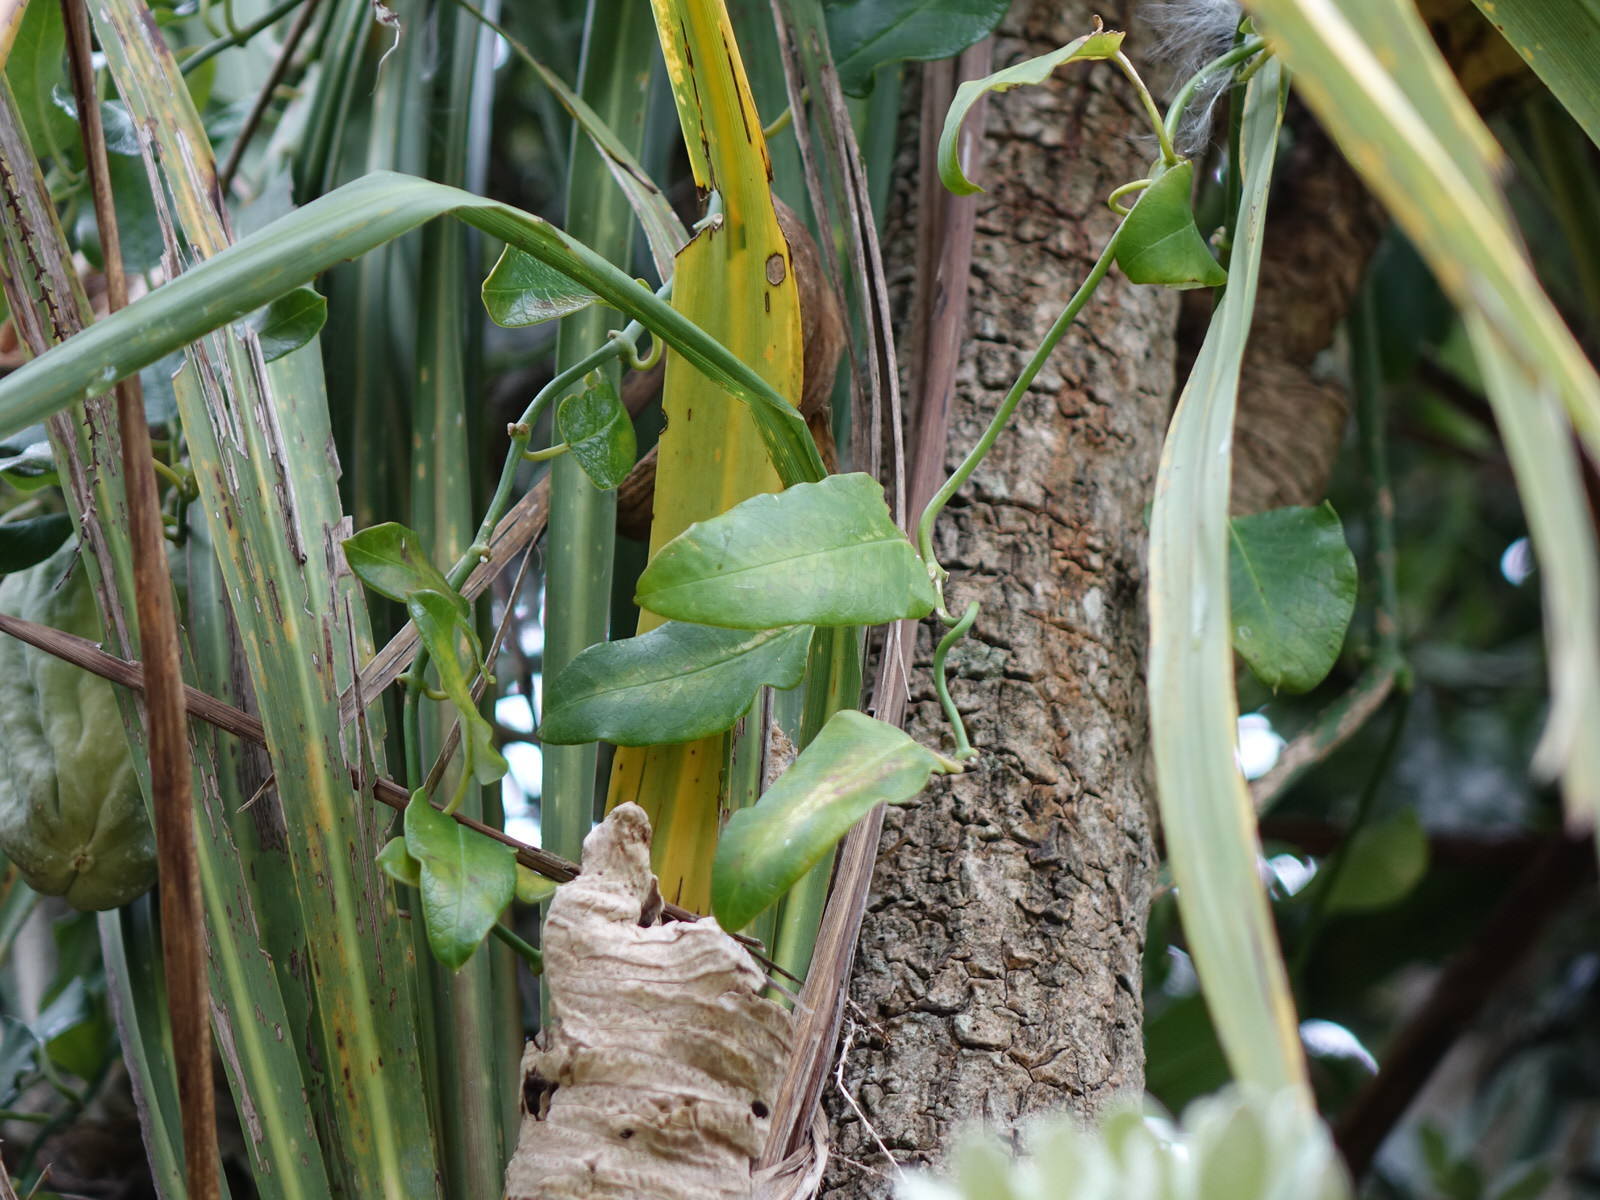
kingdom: Plantae
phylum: Tracheophyta
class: Magnoliopsida
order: Gentianales
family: Apocynaceae
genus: Araujia
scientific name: Araujia sericifera
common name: White bladderflower
